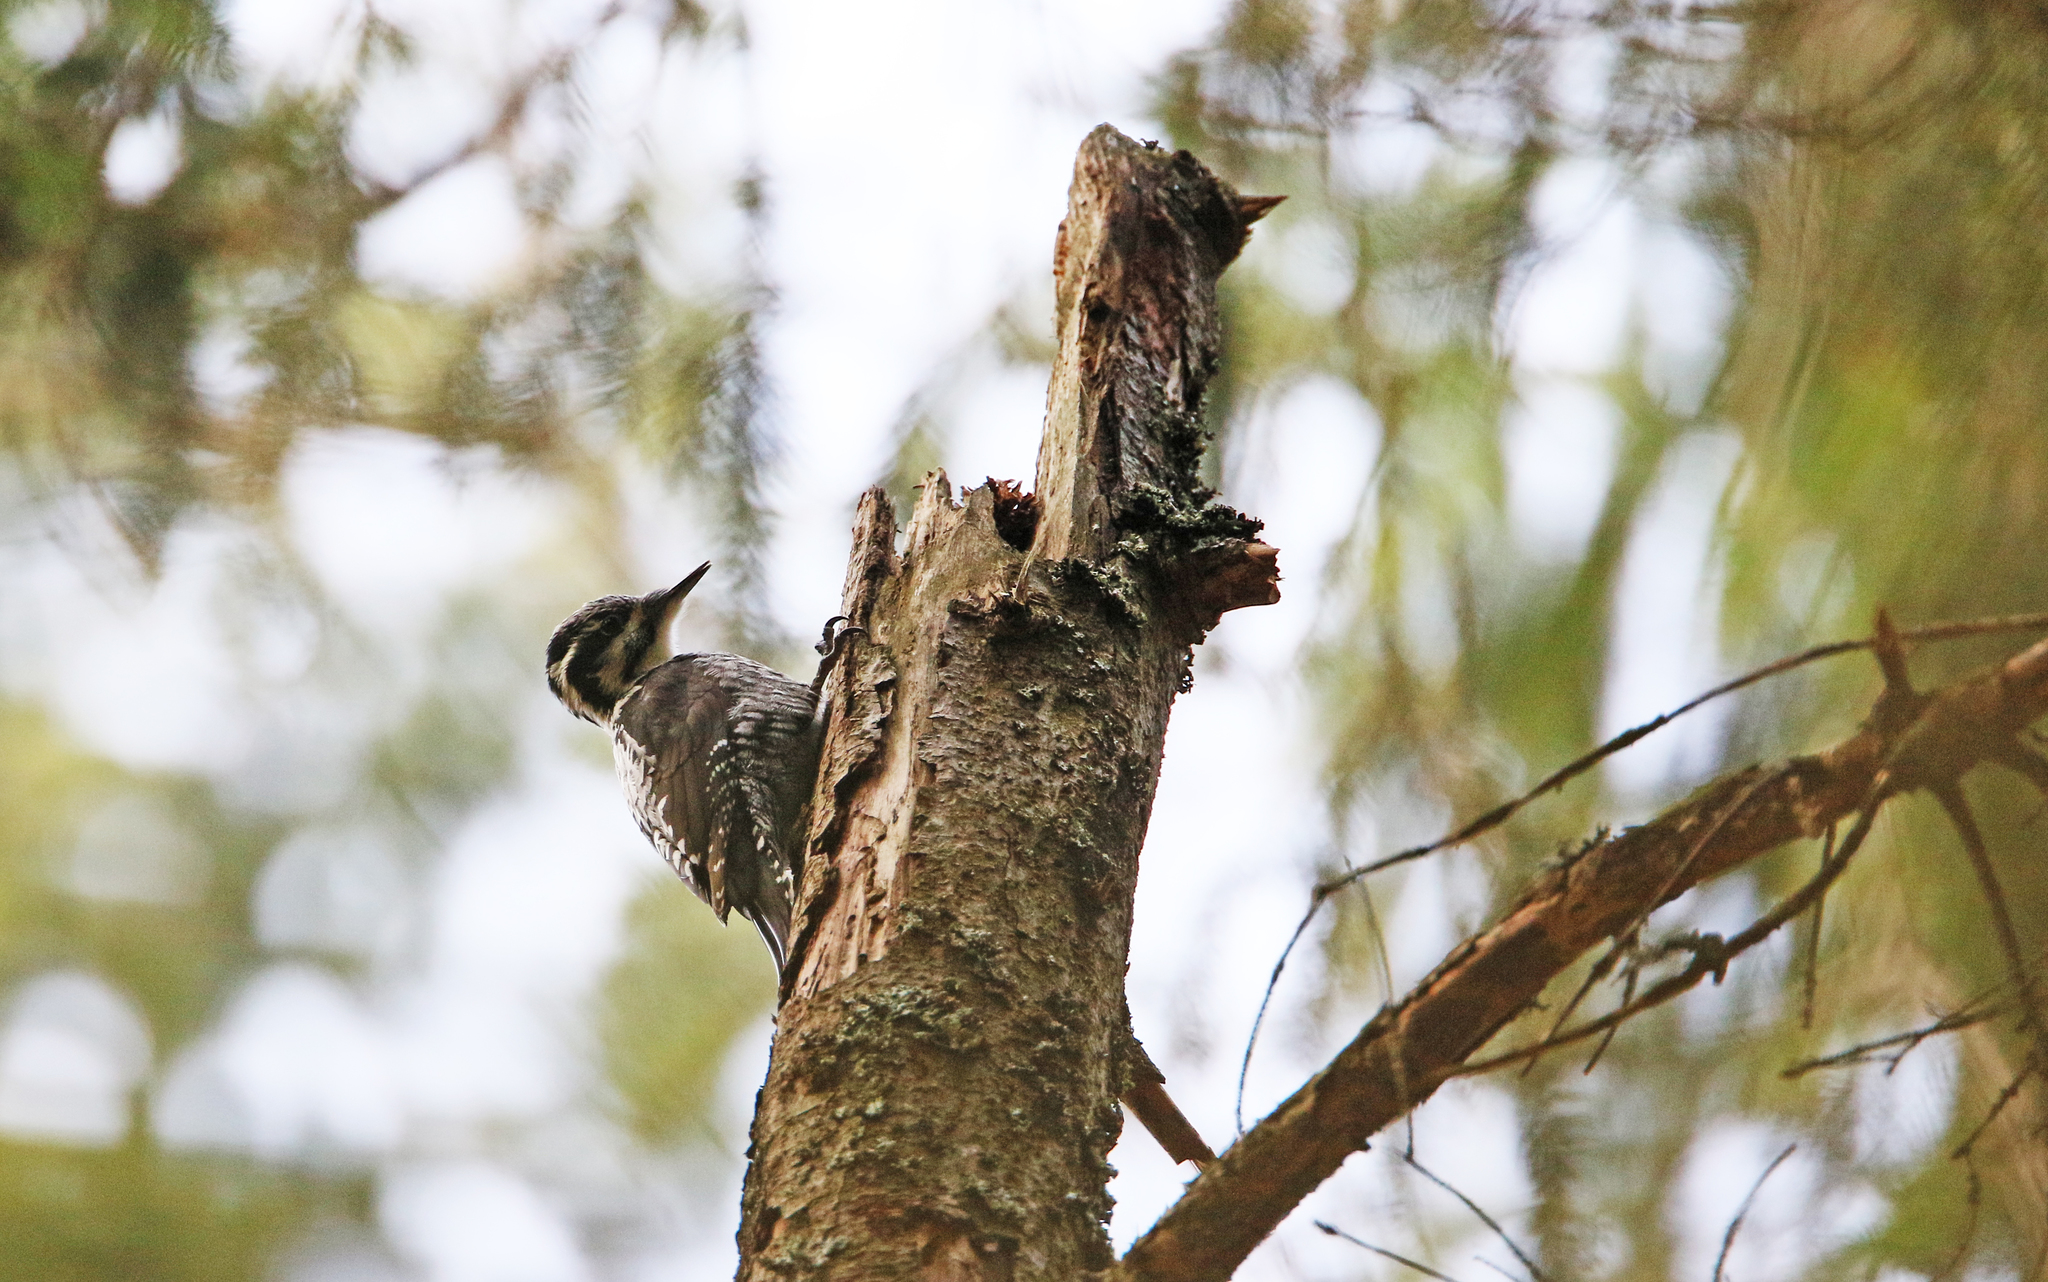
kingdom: Animalia
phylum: Chordata
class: Aves
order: Piciformes
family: Picidae
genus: Picoides
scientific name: Picoides tridactylus
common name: Eurasian three-toed woodpecker
